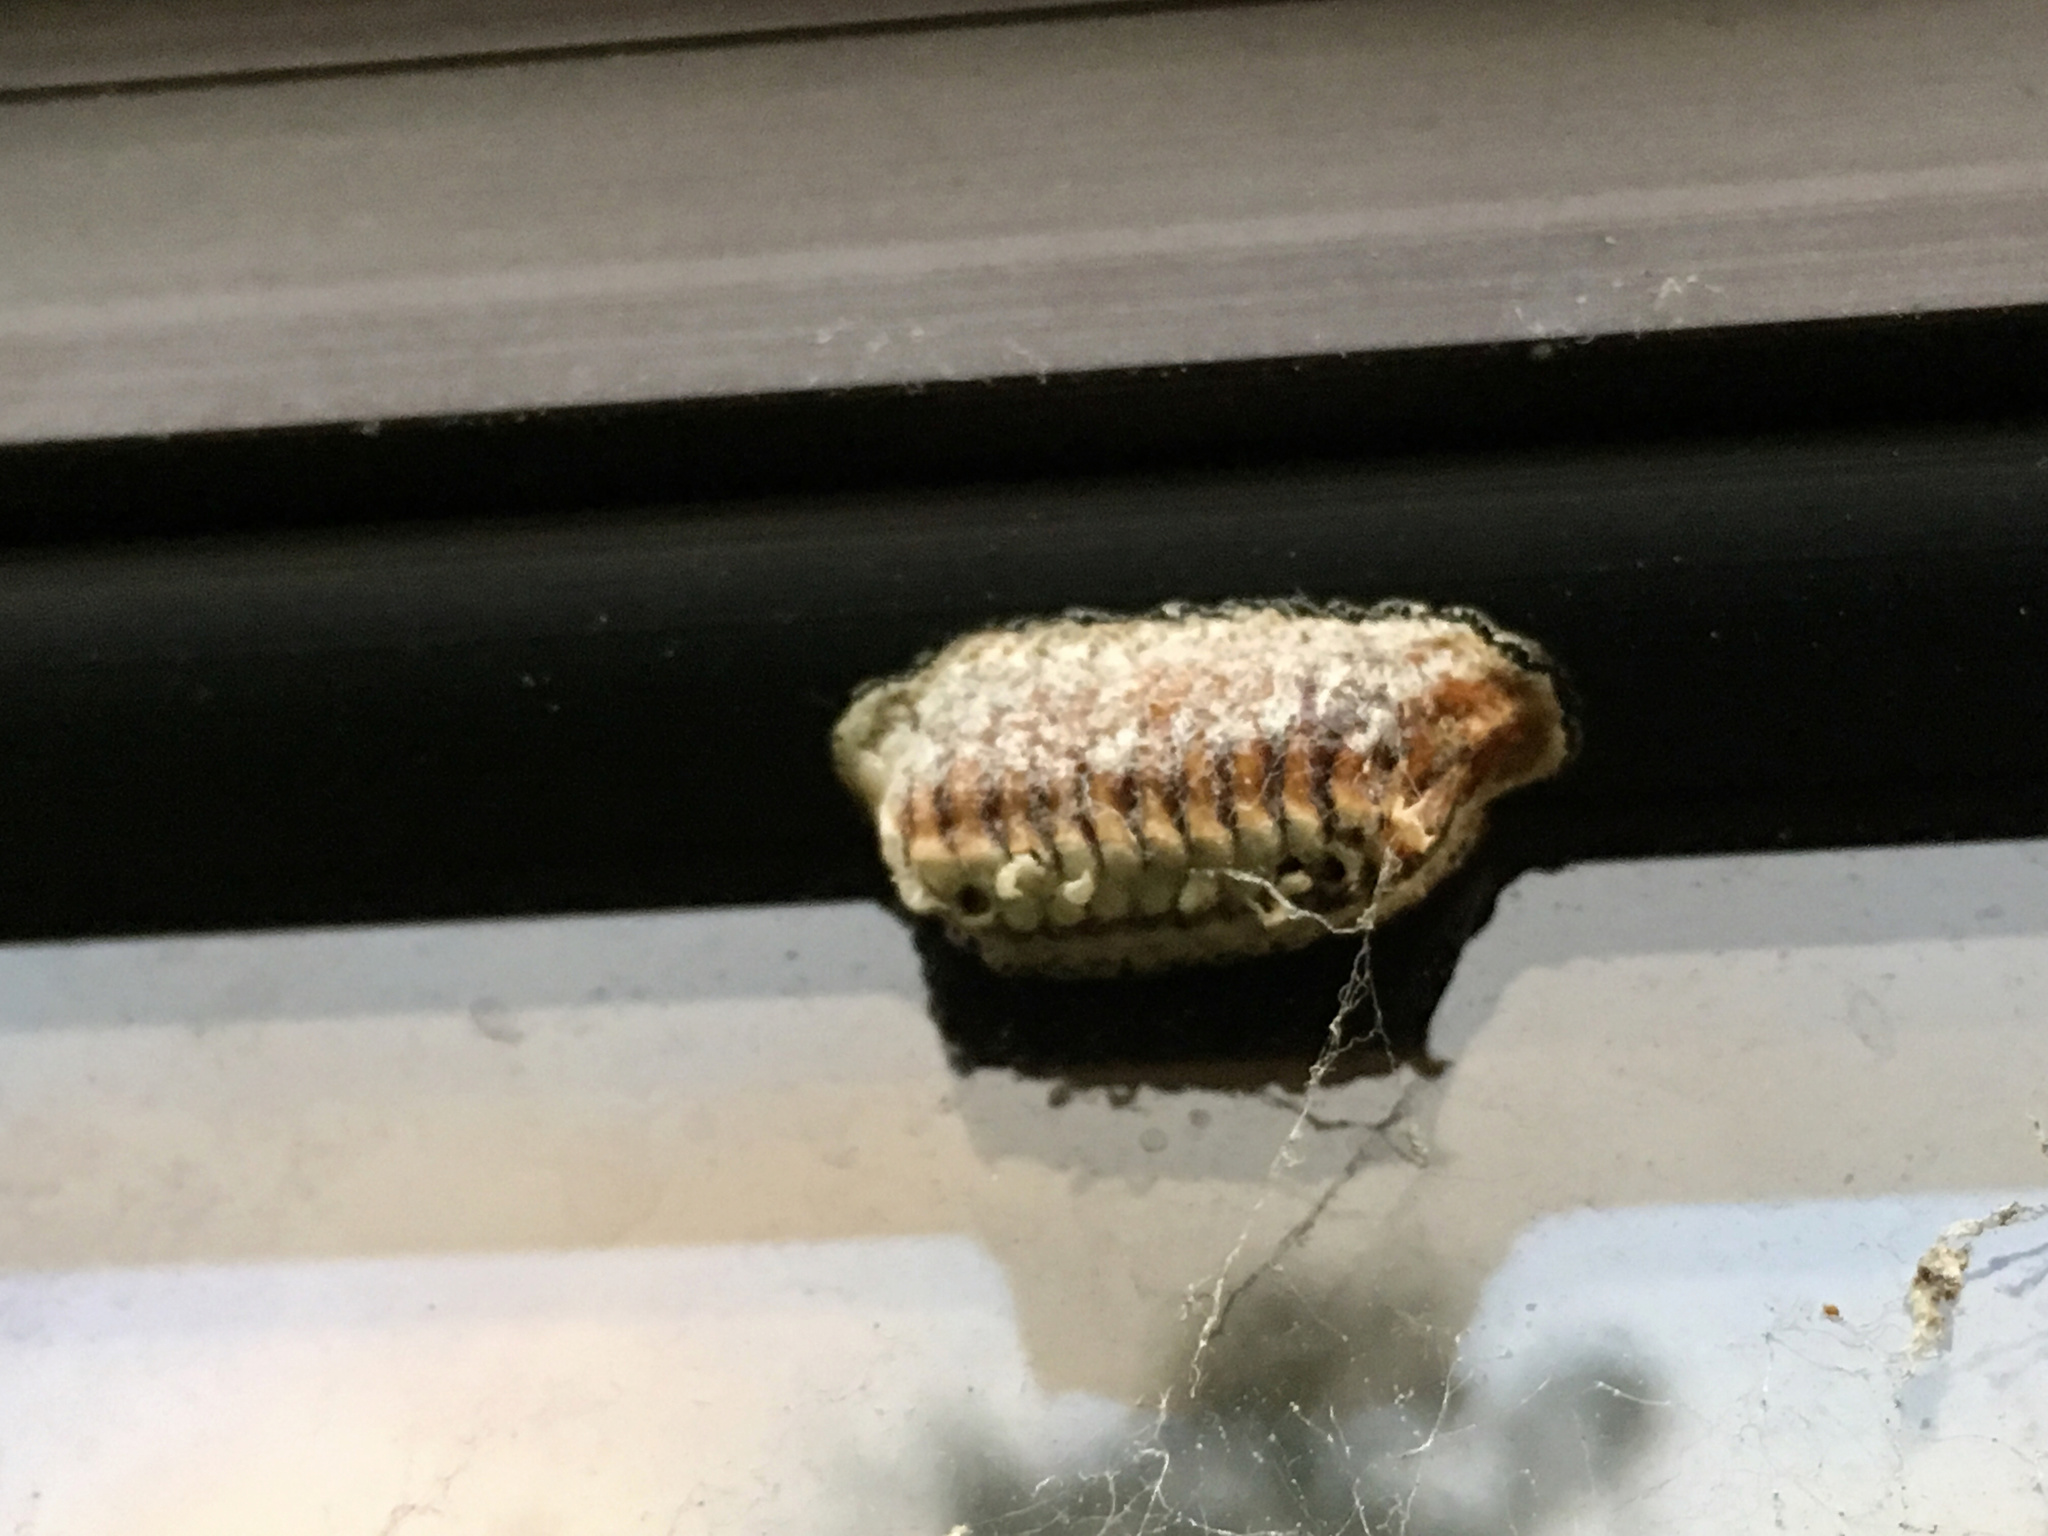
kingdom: Animalia
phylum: Arthropoda
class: Insecta
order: Mantodea
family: Mantidae
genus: Orthodera
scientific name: Orthodera novaezealandiae
